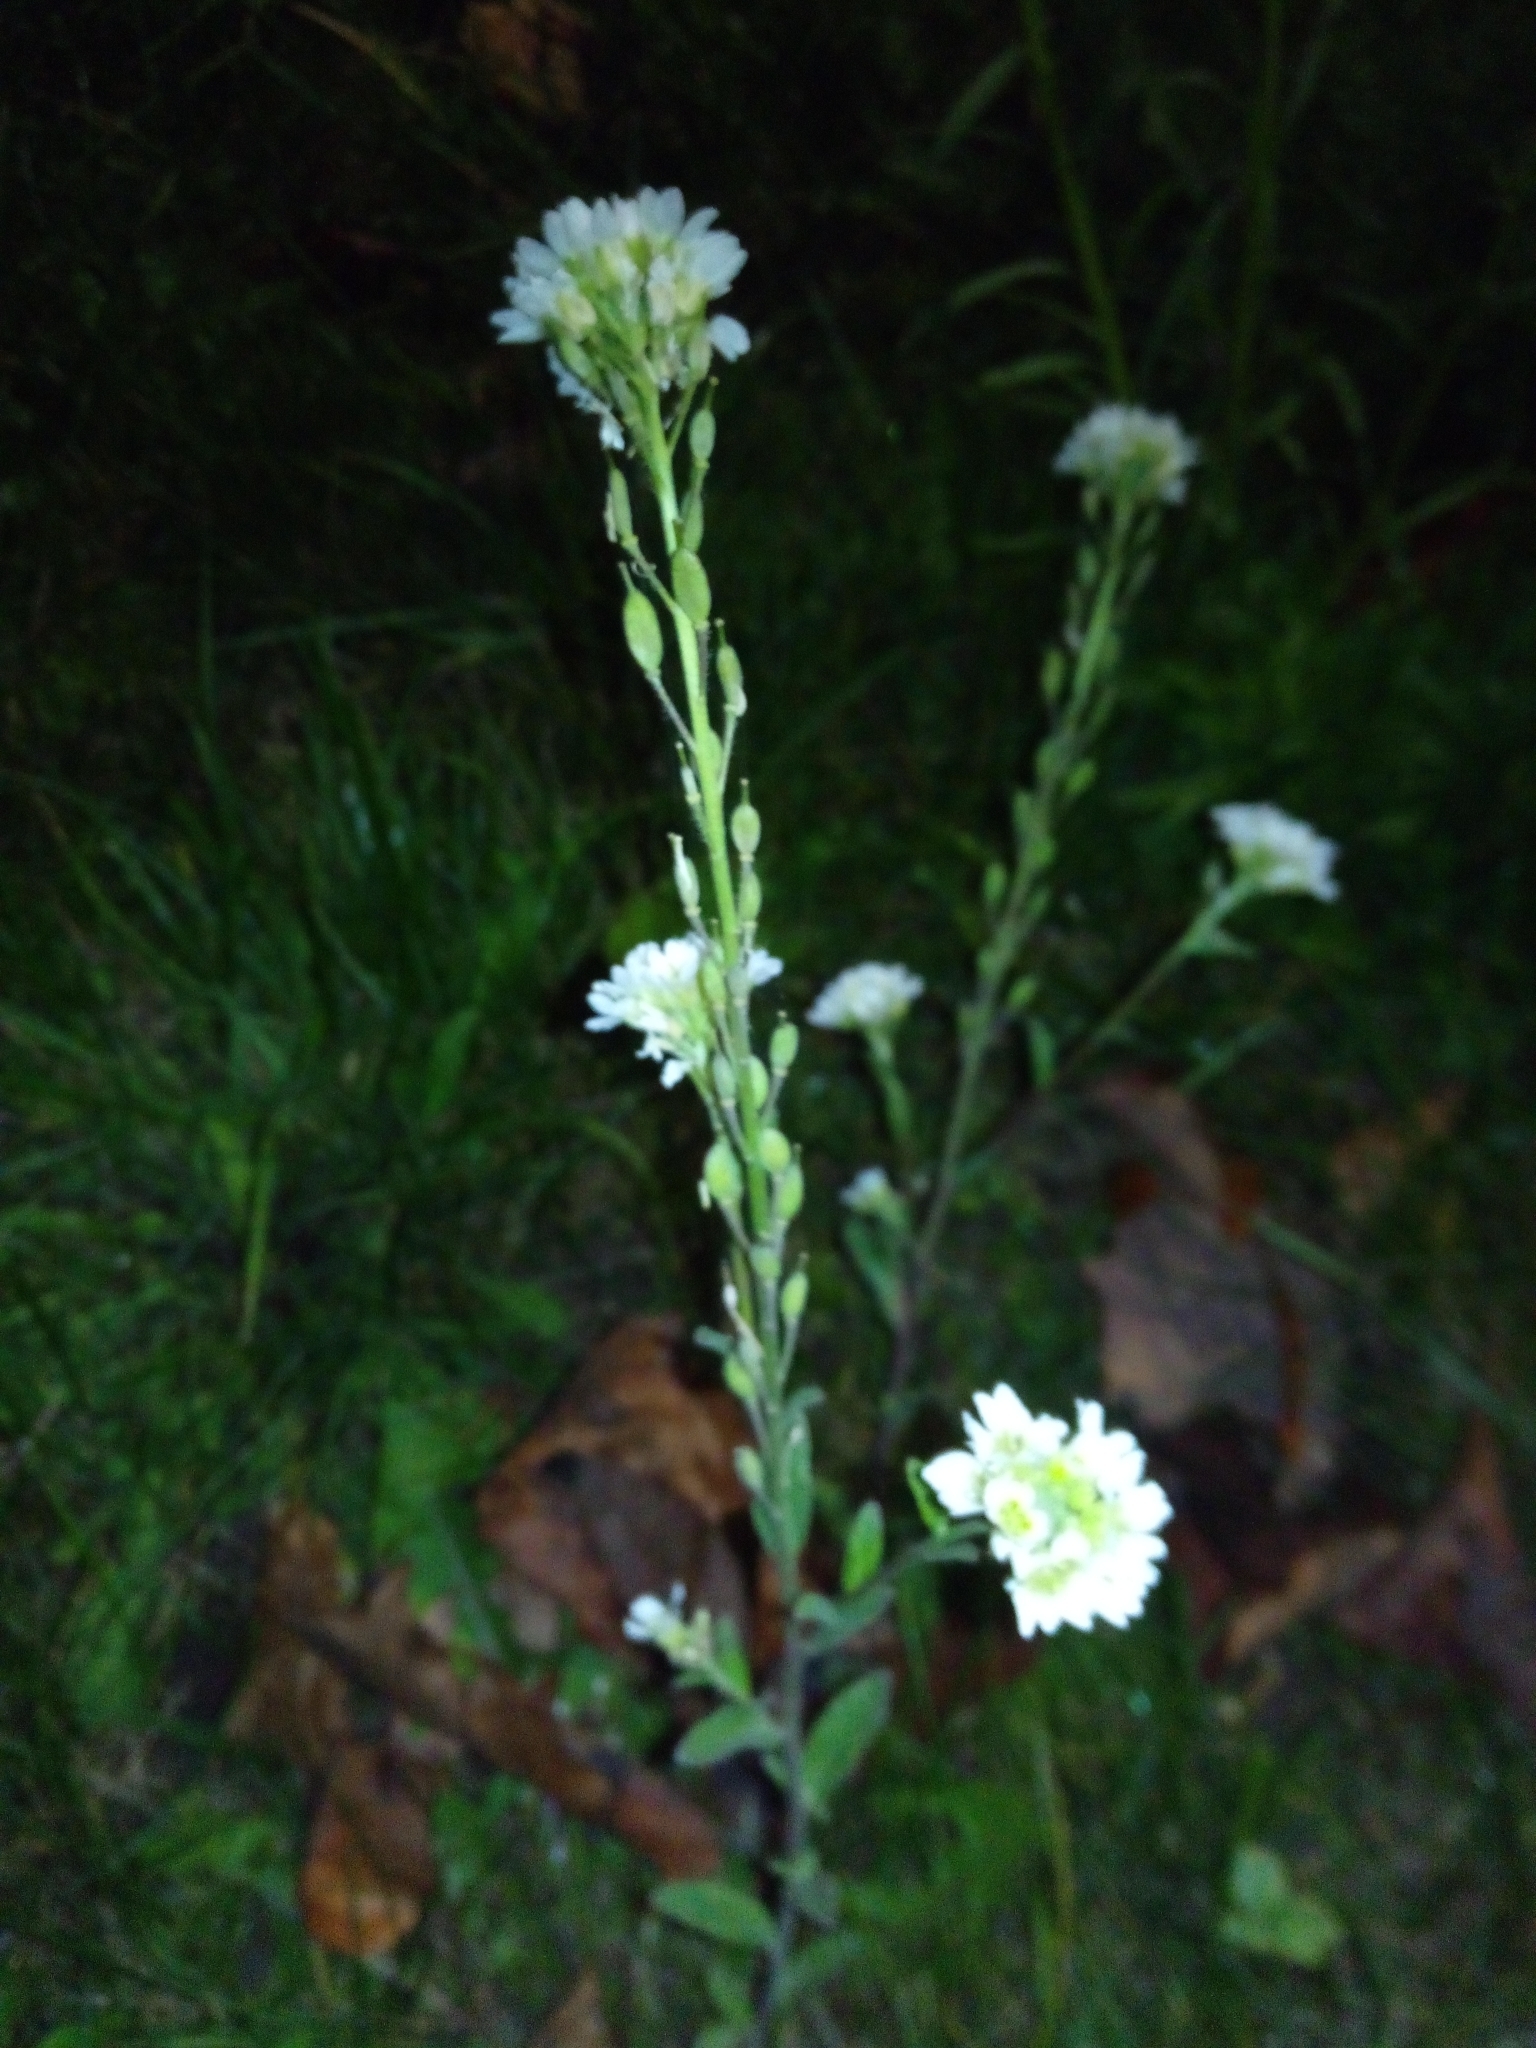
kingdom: Plantae
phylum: Tracheophyta
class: Magnoliopsida
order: Brassicales
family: Brassicaceae
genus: Berteroa
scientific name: Berteroa incana
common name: Hoary alison
